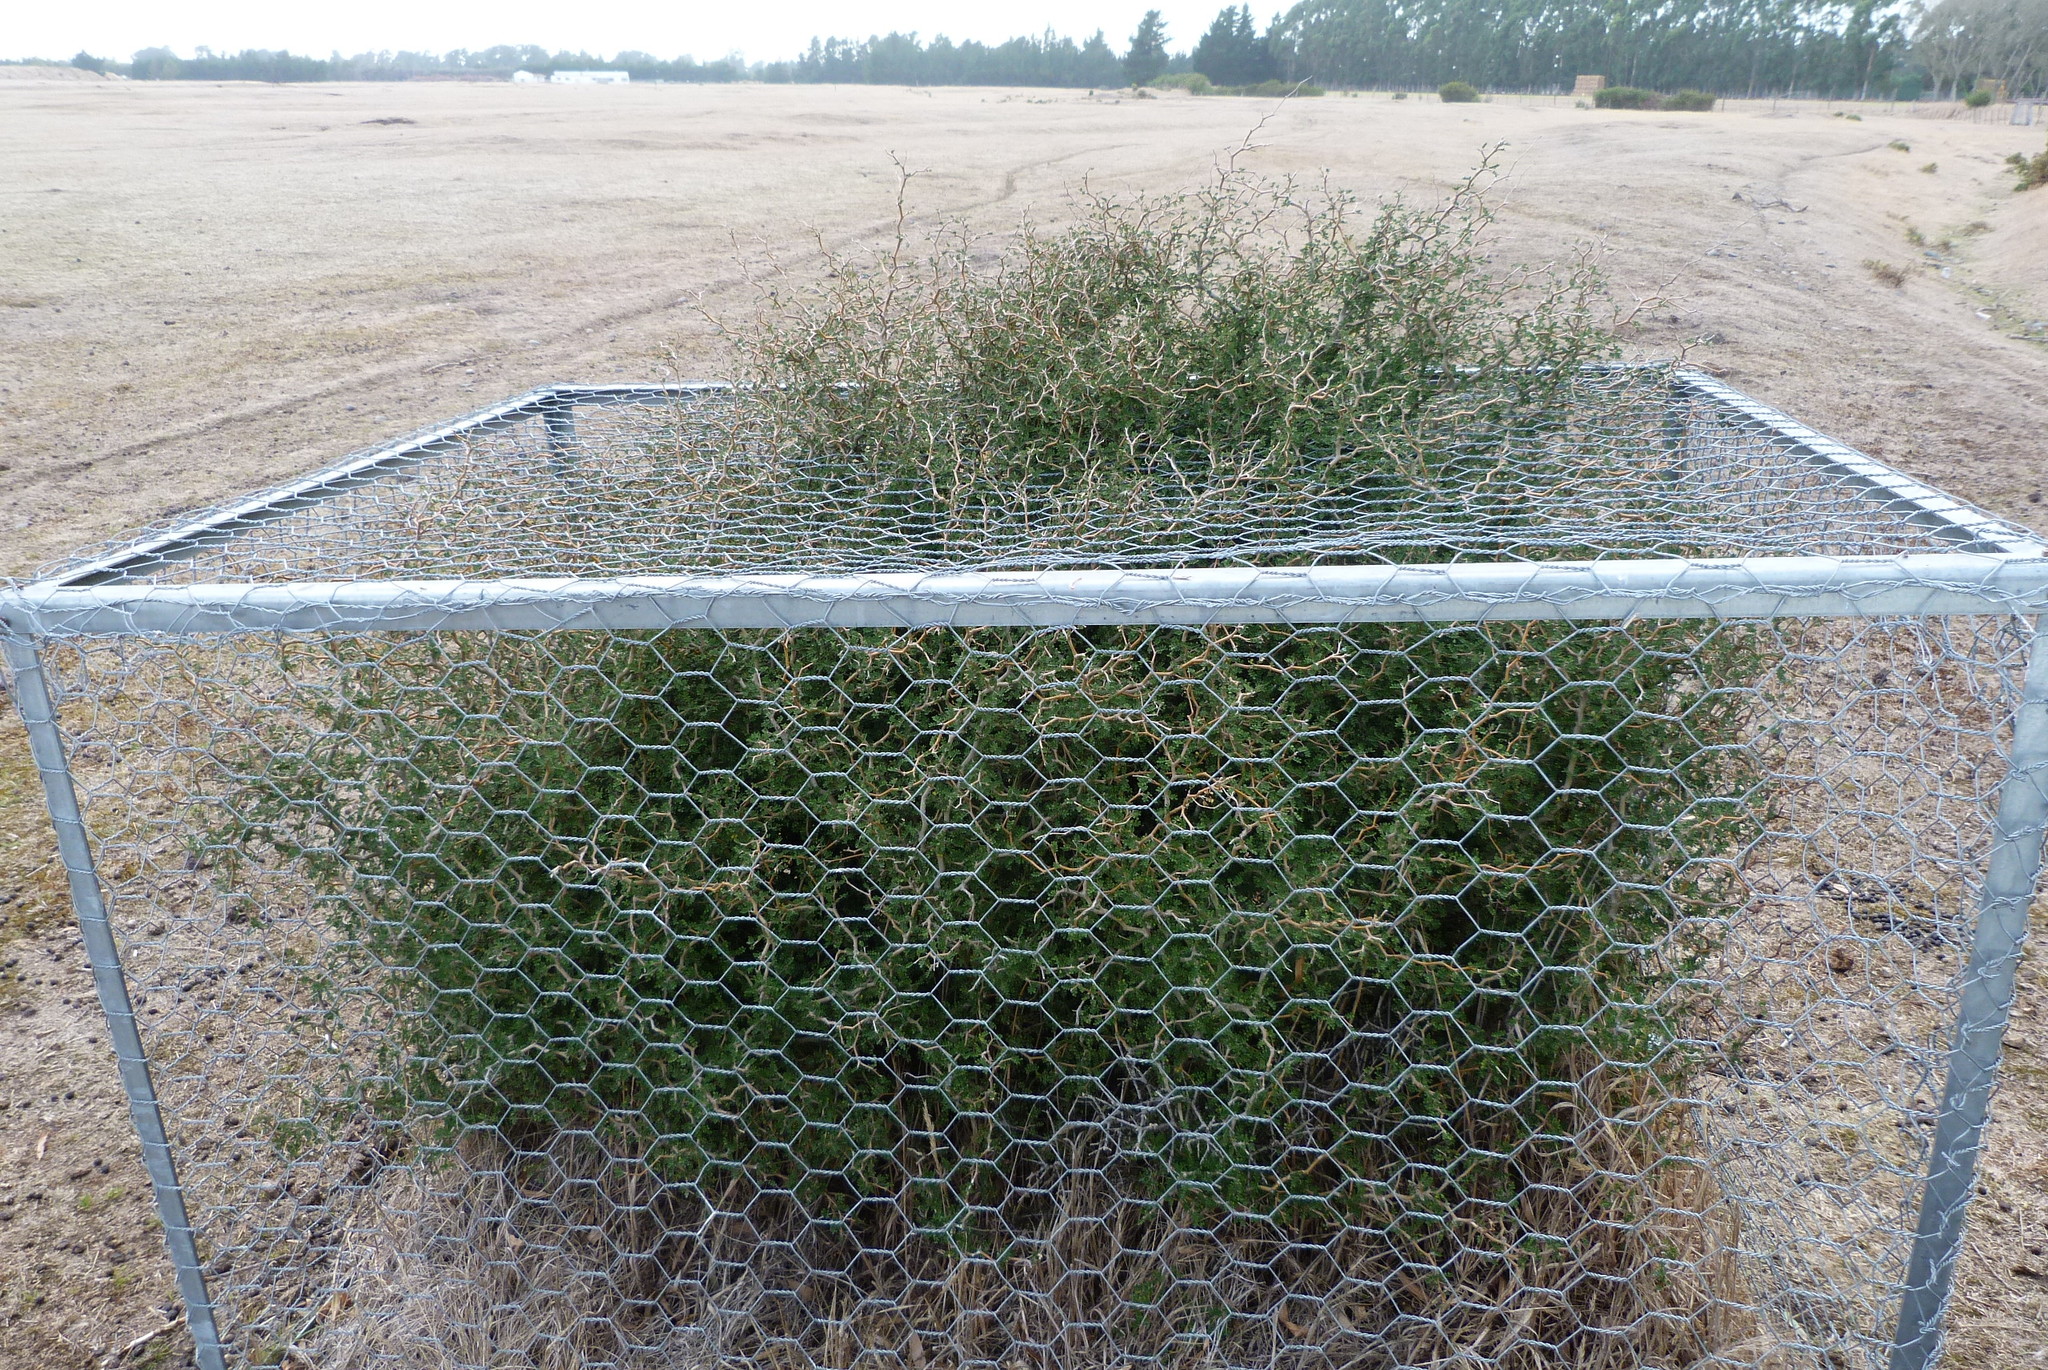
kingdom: Plantae
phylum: Tracheophyta
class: Magnoliopsida
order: Fabales
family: Fabaceae
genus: Sophora
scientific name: Sophora prostrata
